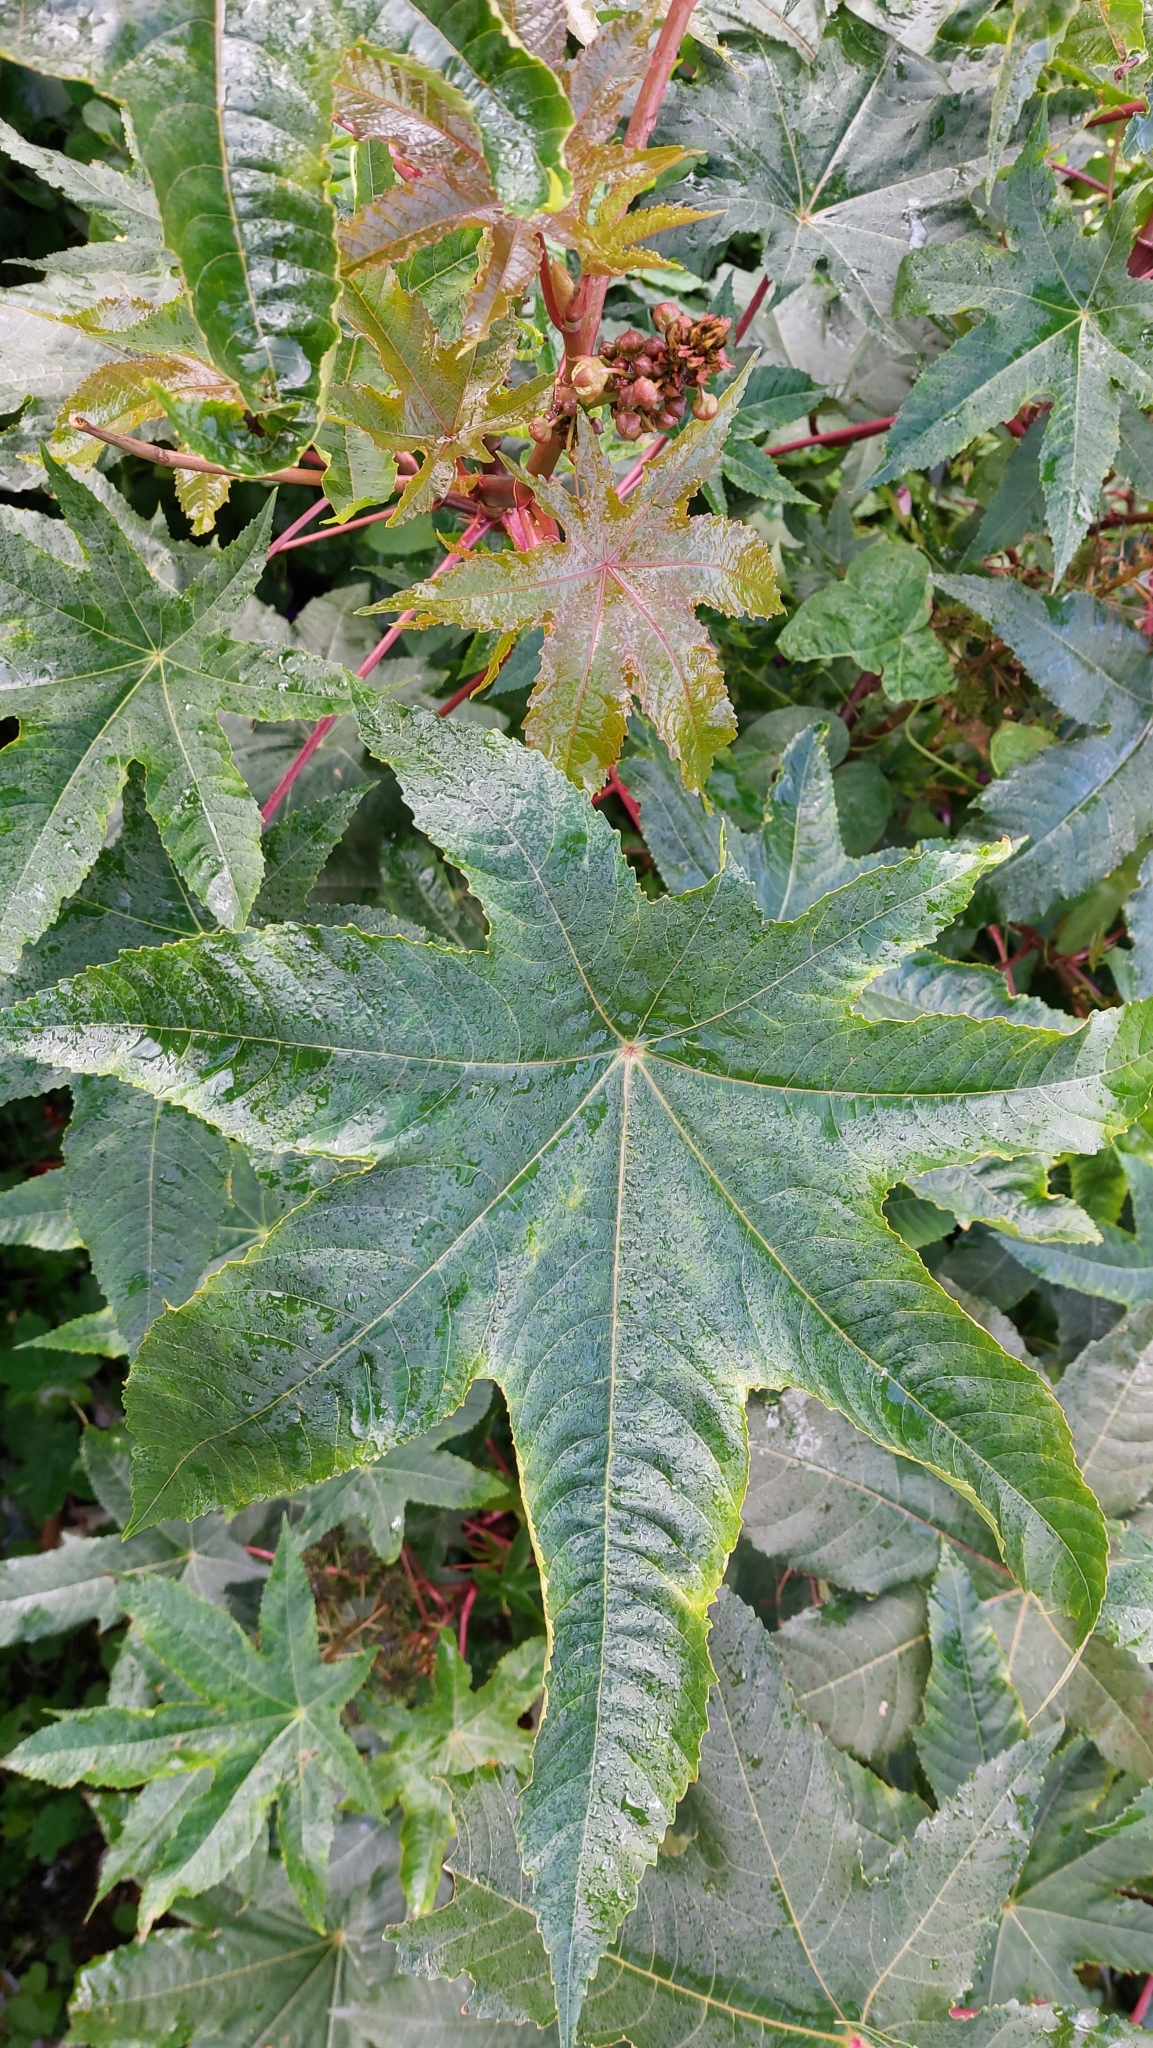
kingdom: Plantae
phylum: Tracheophyta
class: Magnoliopsida
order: Malpighiales
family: Euphorbiaceae
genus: Ricinus
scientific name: Ricinus communis
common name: Castor-oil-plant
